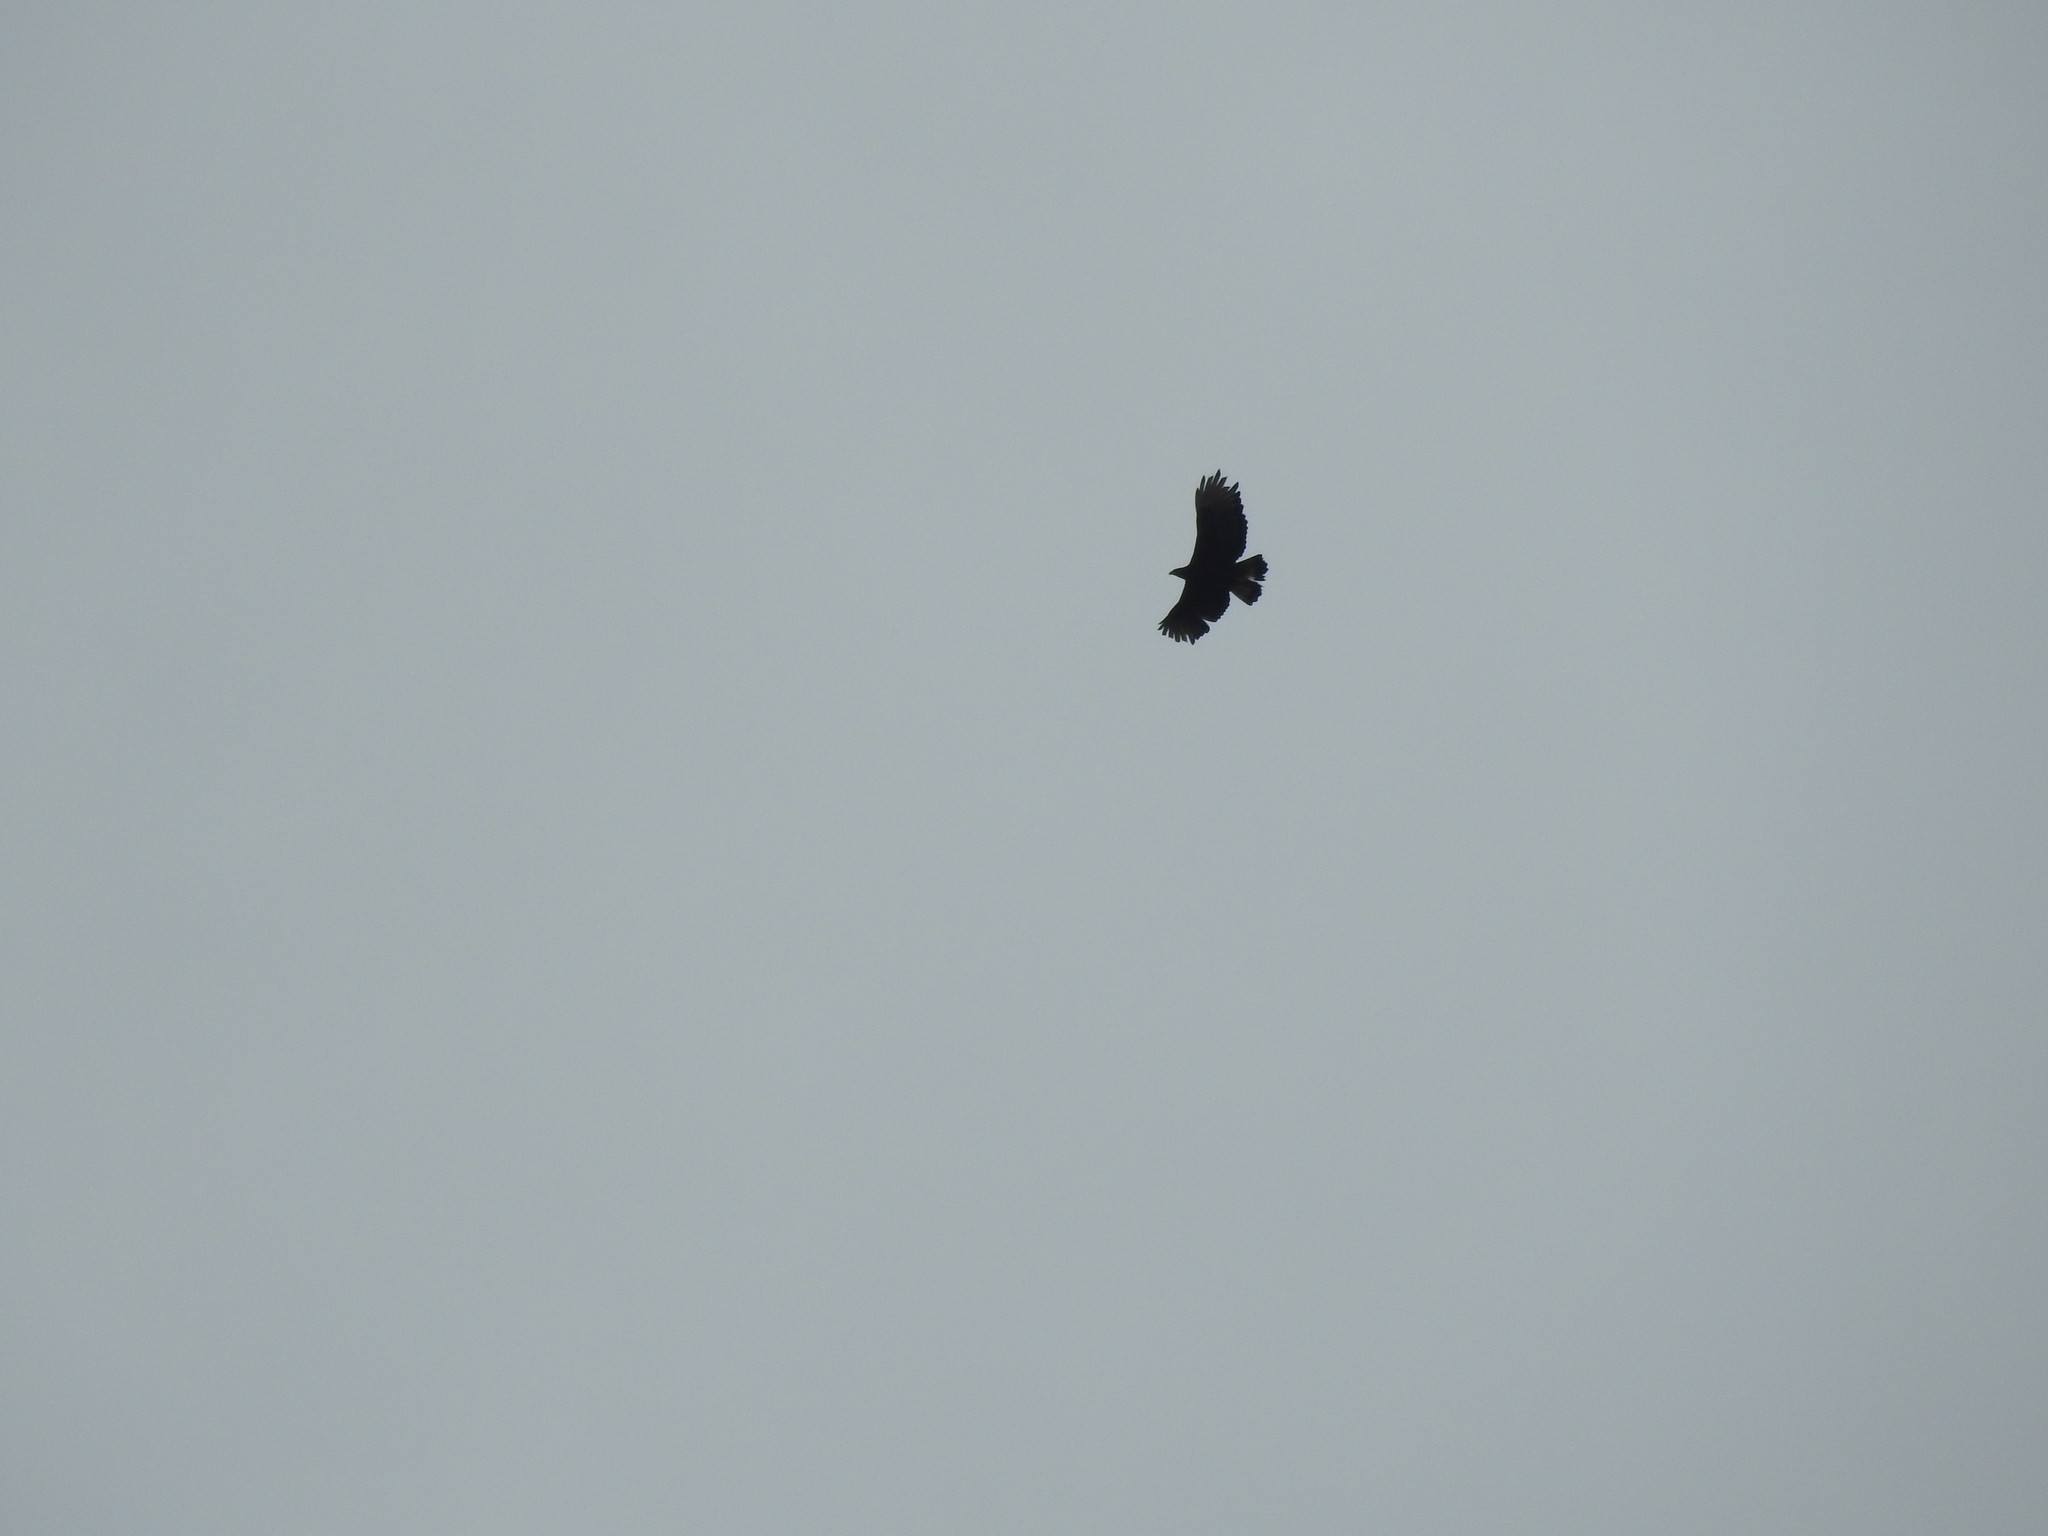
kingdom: Animalia
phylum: Chordata
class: Aves
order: Accipitriformes
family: Accipitridae
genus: Spizaetus
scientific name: Spizaetus isidori
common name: Black-and-chestnut eagle
